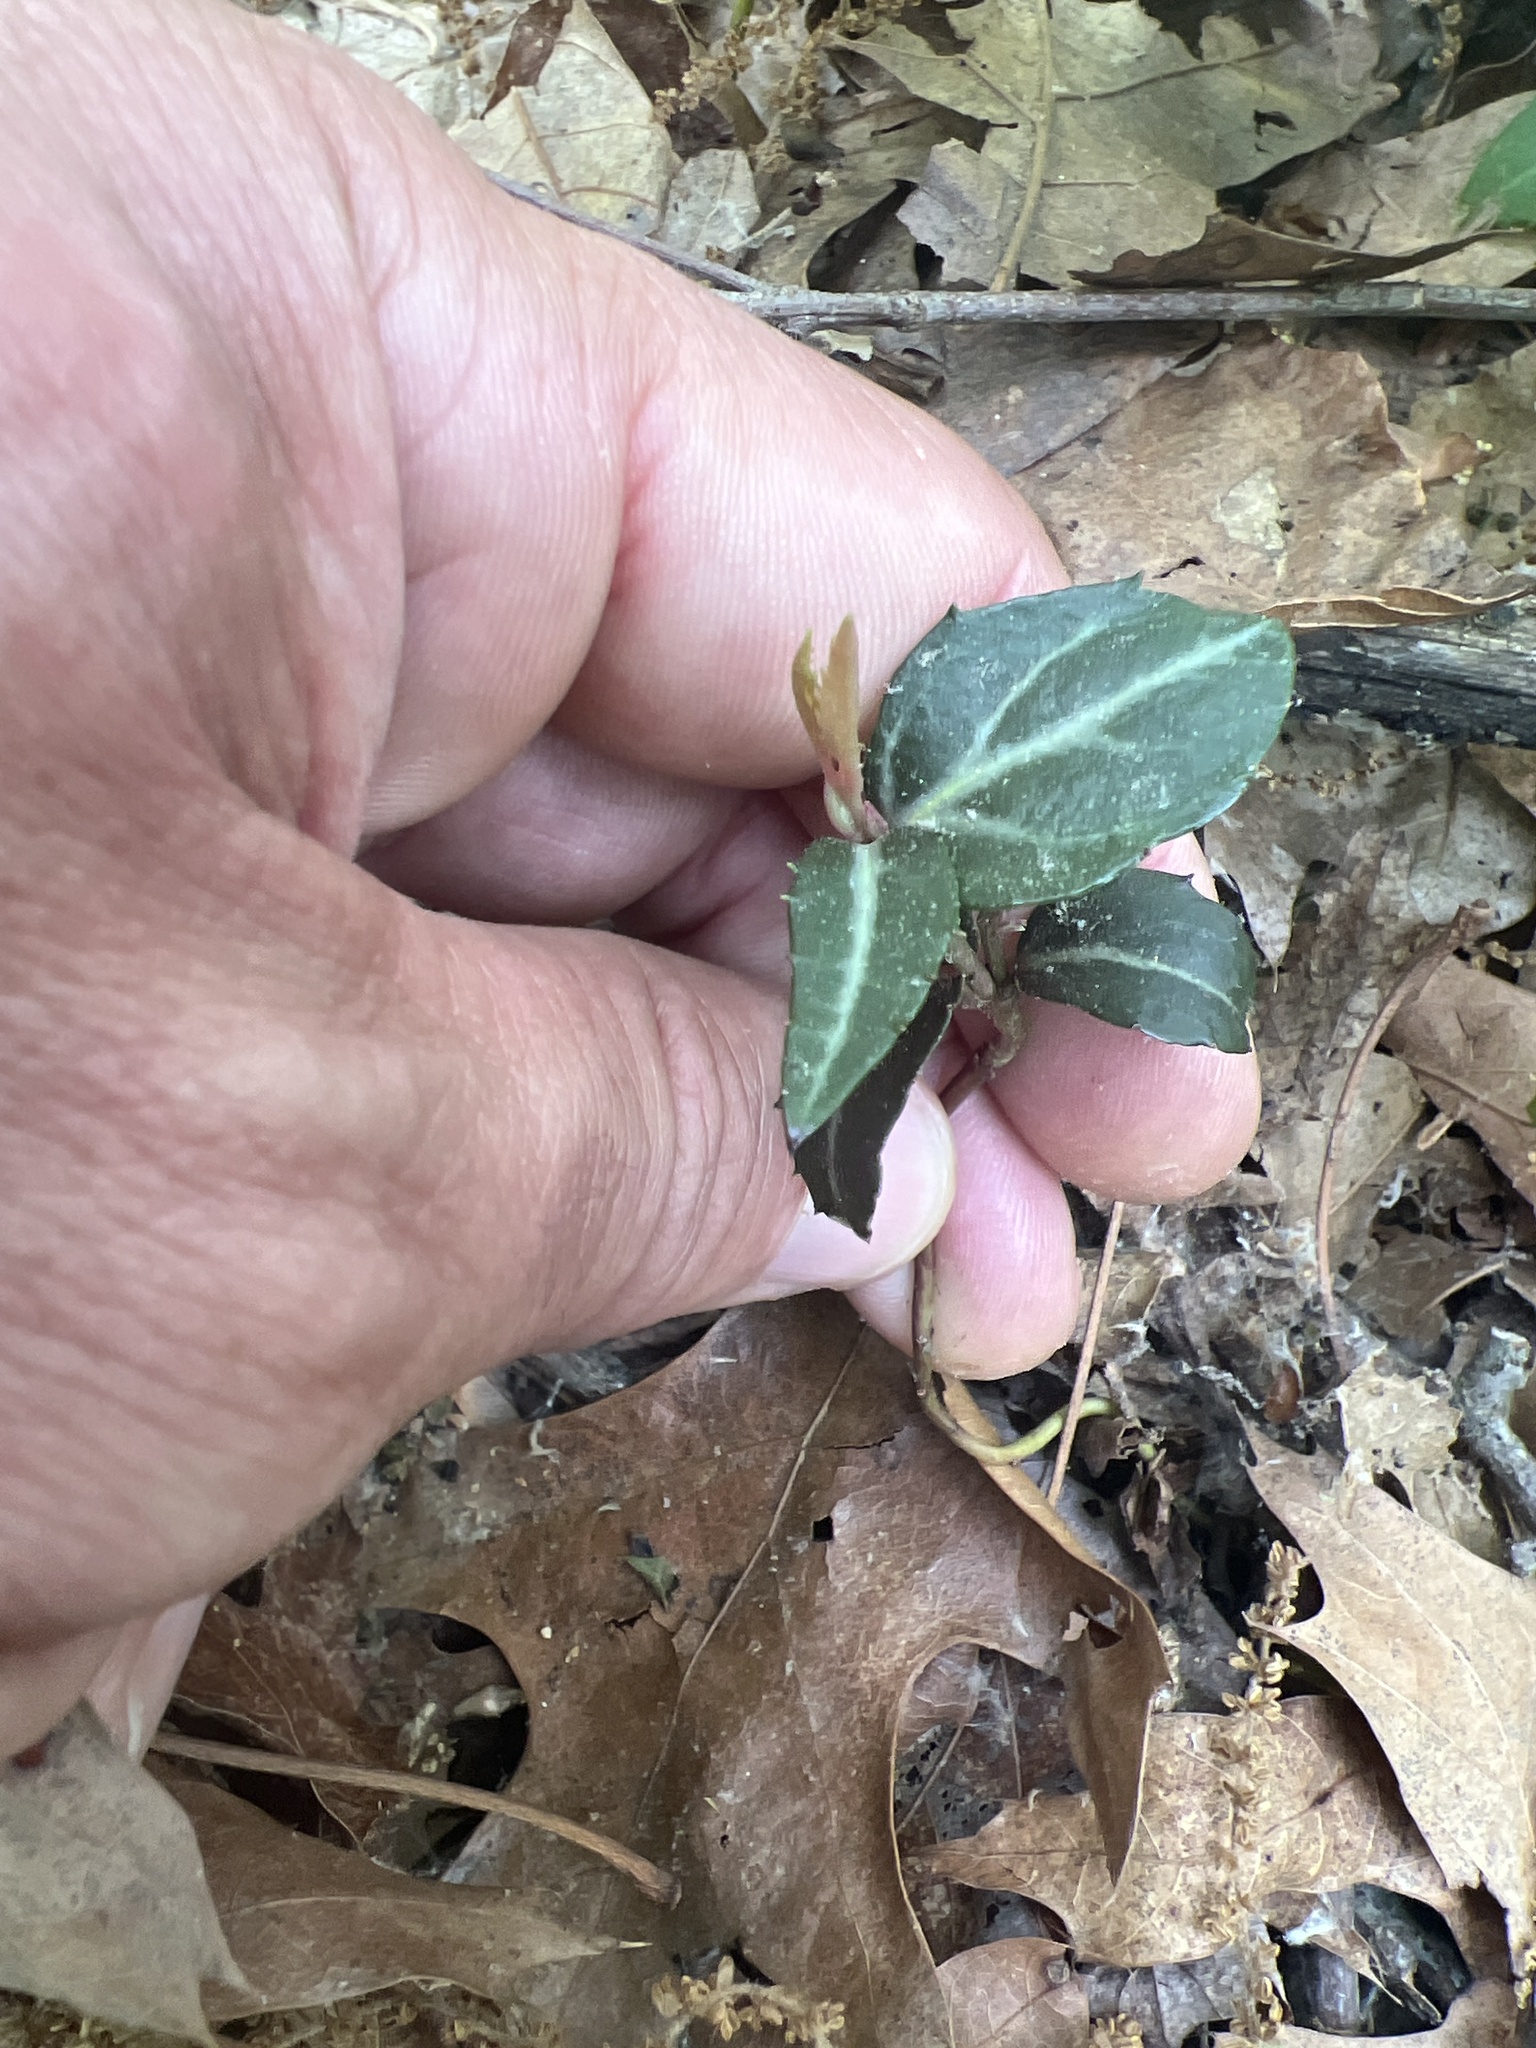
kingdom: Plantae
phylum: Tracheophyta
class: Magnoliopsida
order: Ericales
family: Ericaceae
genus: Chimaphila
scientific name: Chimaphila maculata
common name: Spotted pipsissewa
